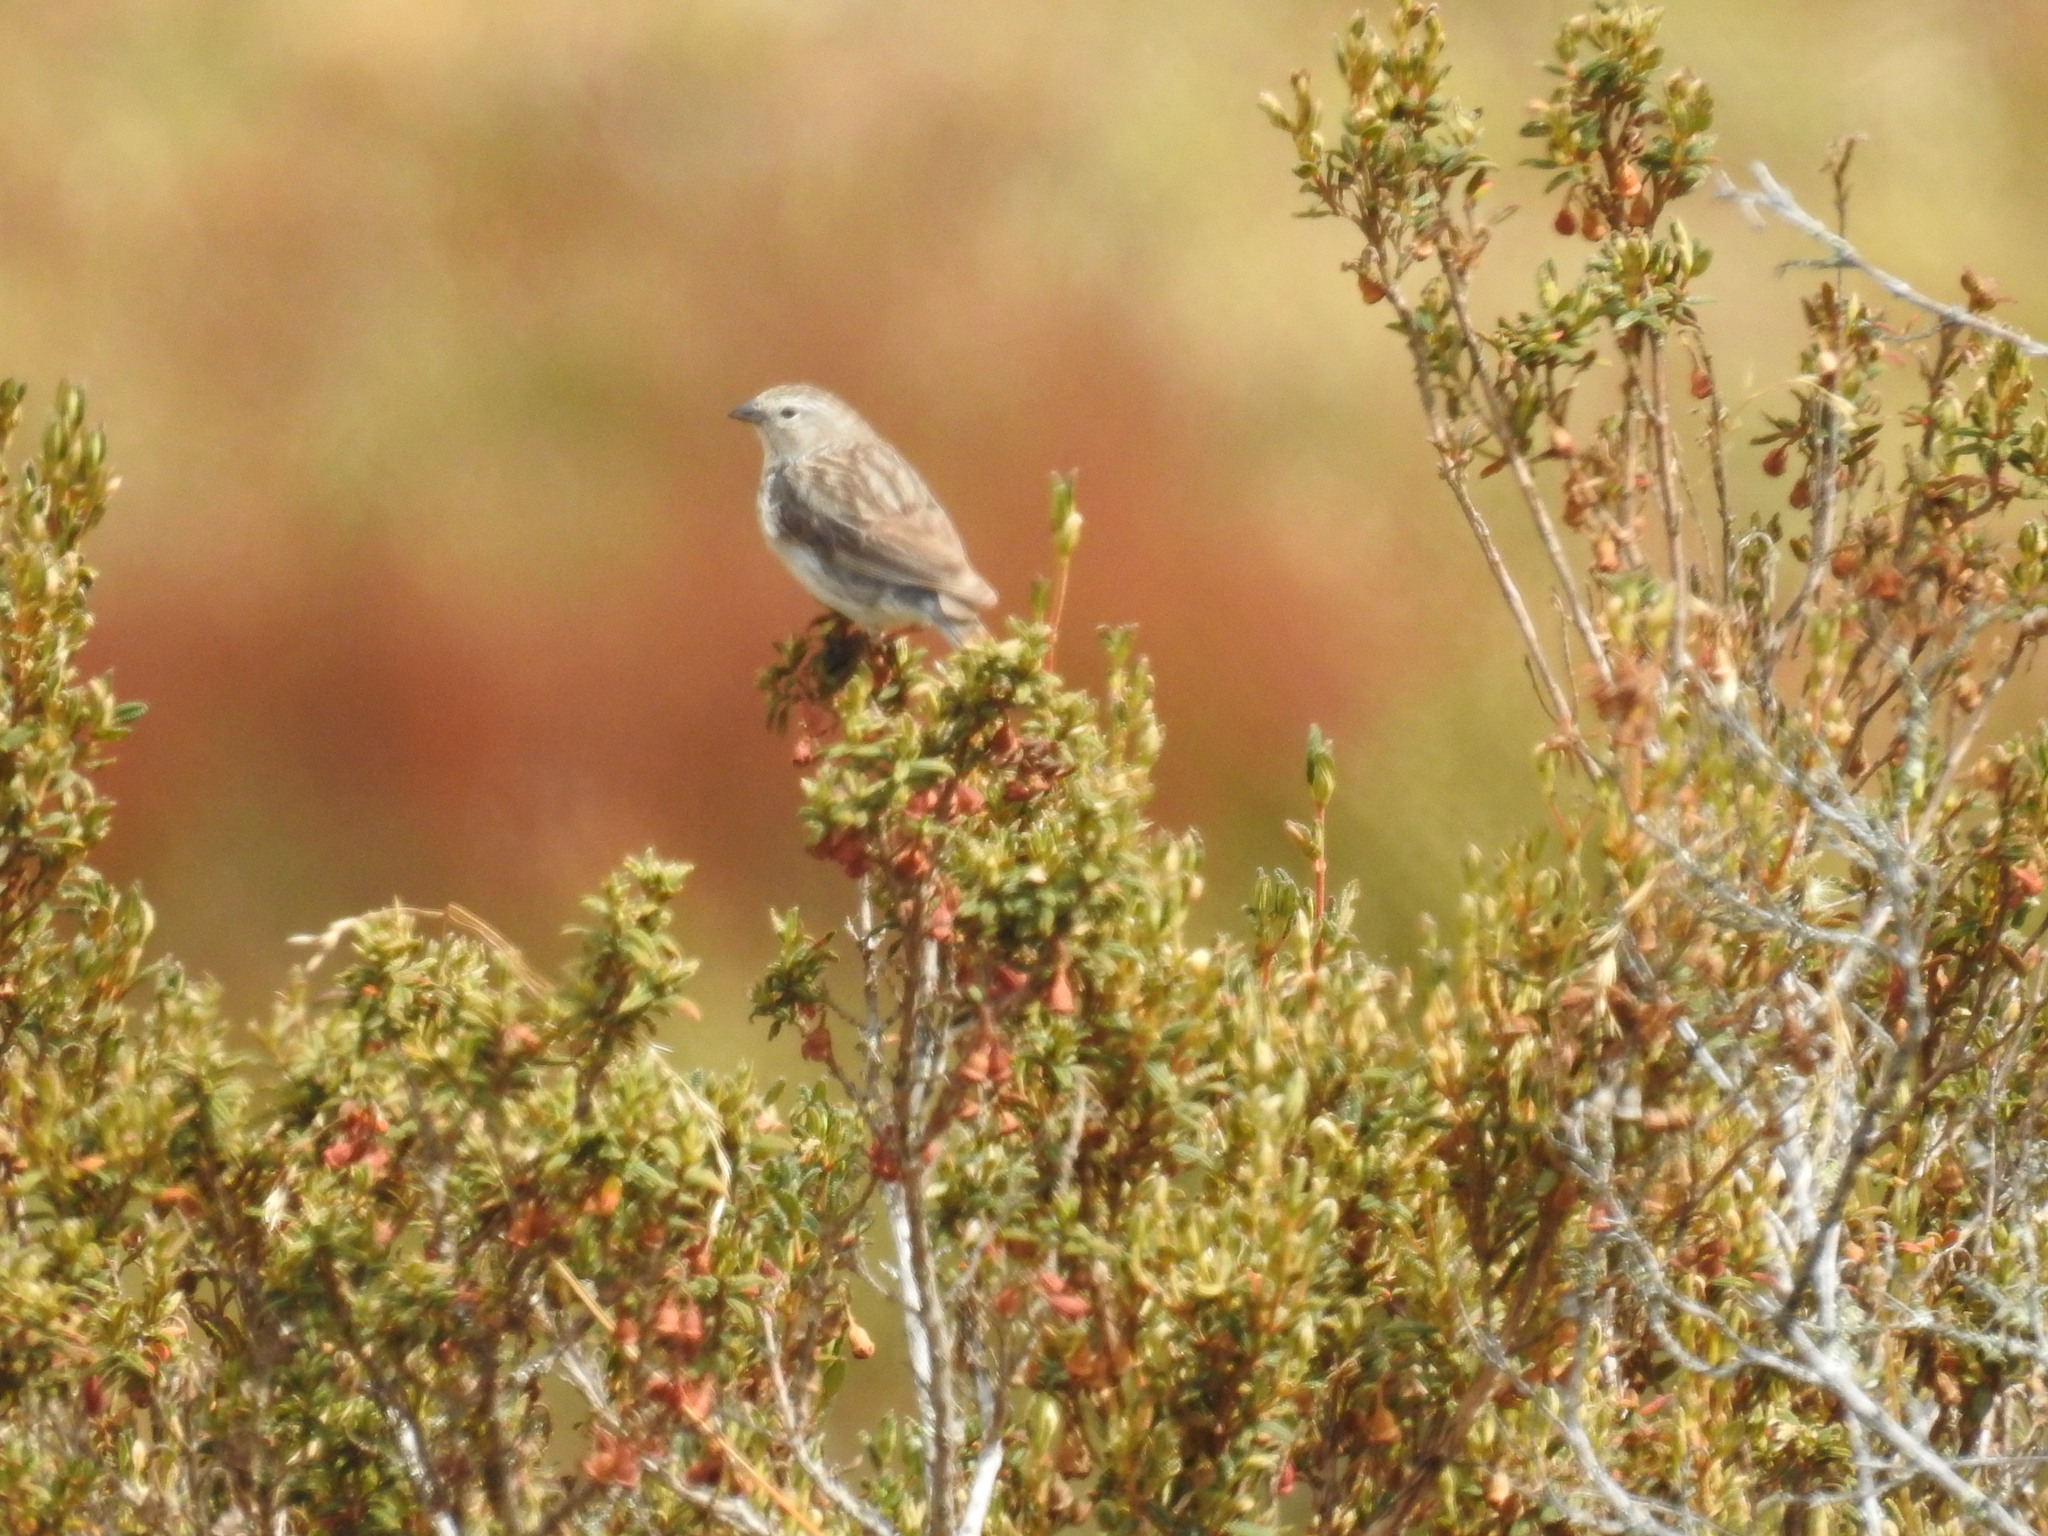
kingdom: Animalia
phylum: Chordata
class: Aves
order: Passeriformes
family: Thraupidae
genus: Geospizopsis
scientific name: Geospizopsis plebejus
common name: Ash-breasted sierra-finch
